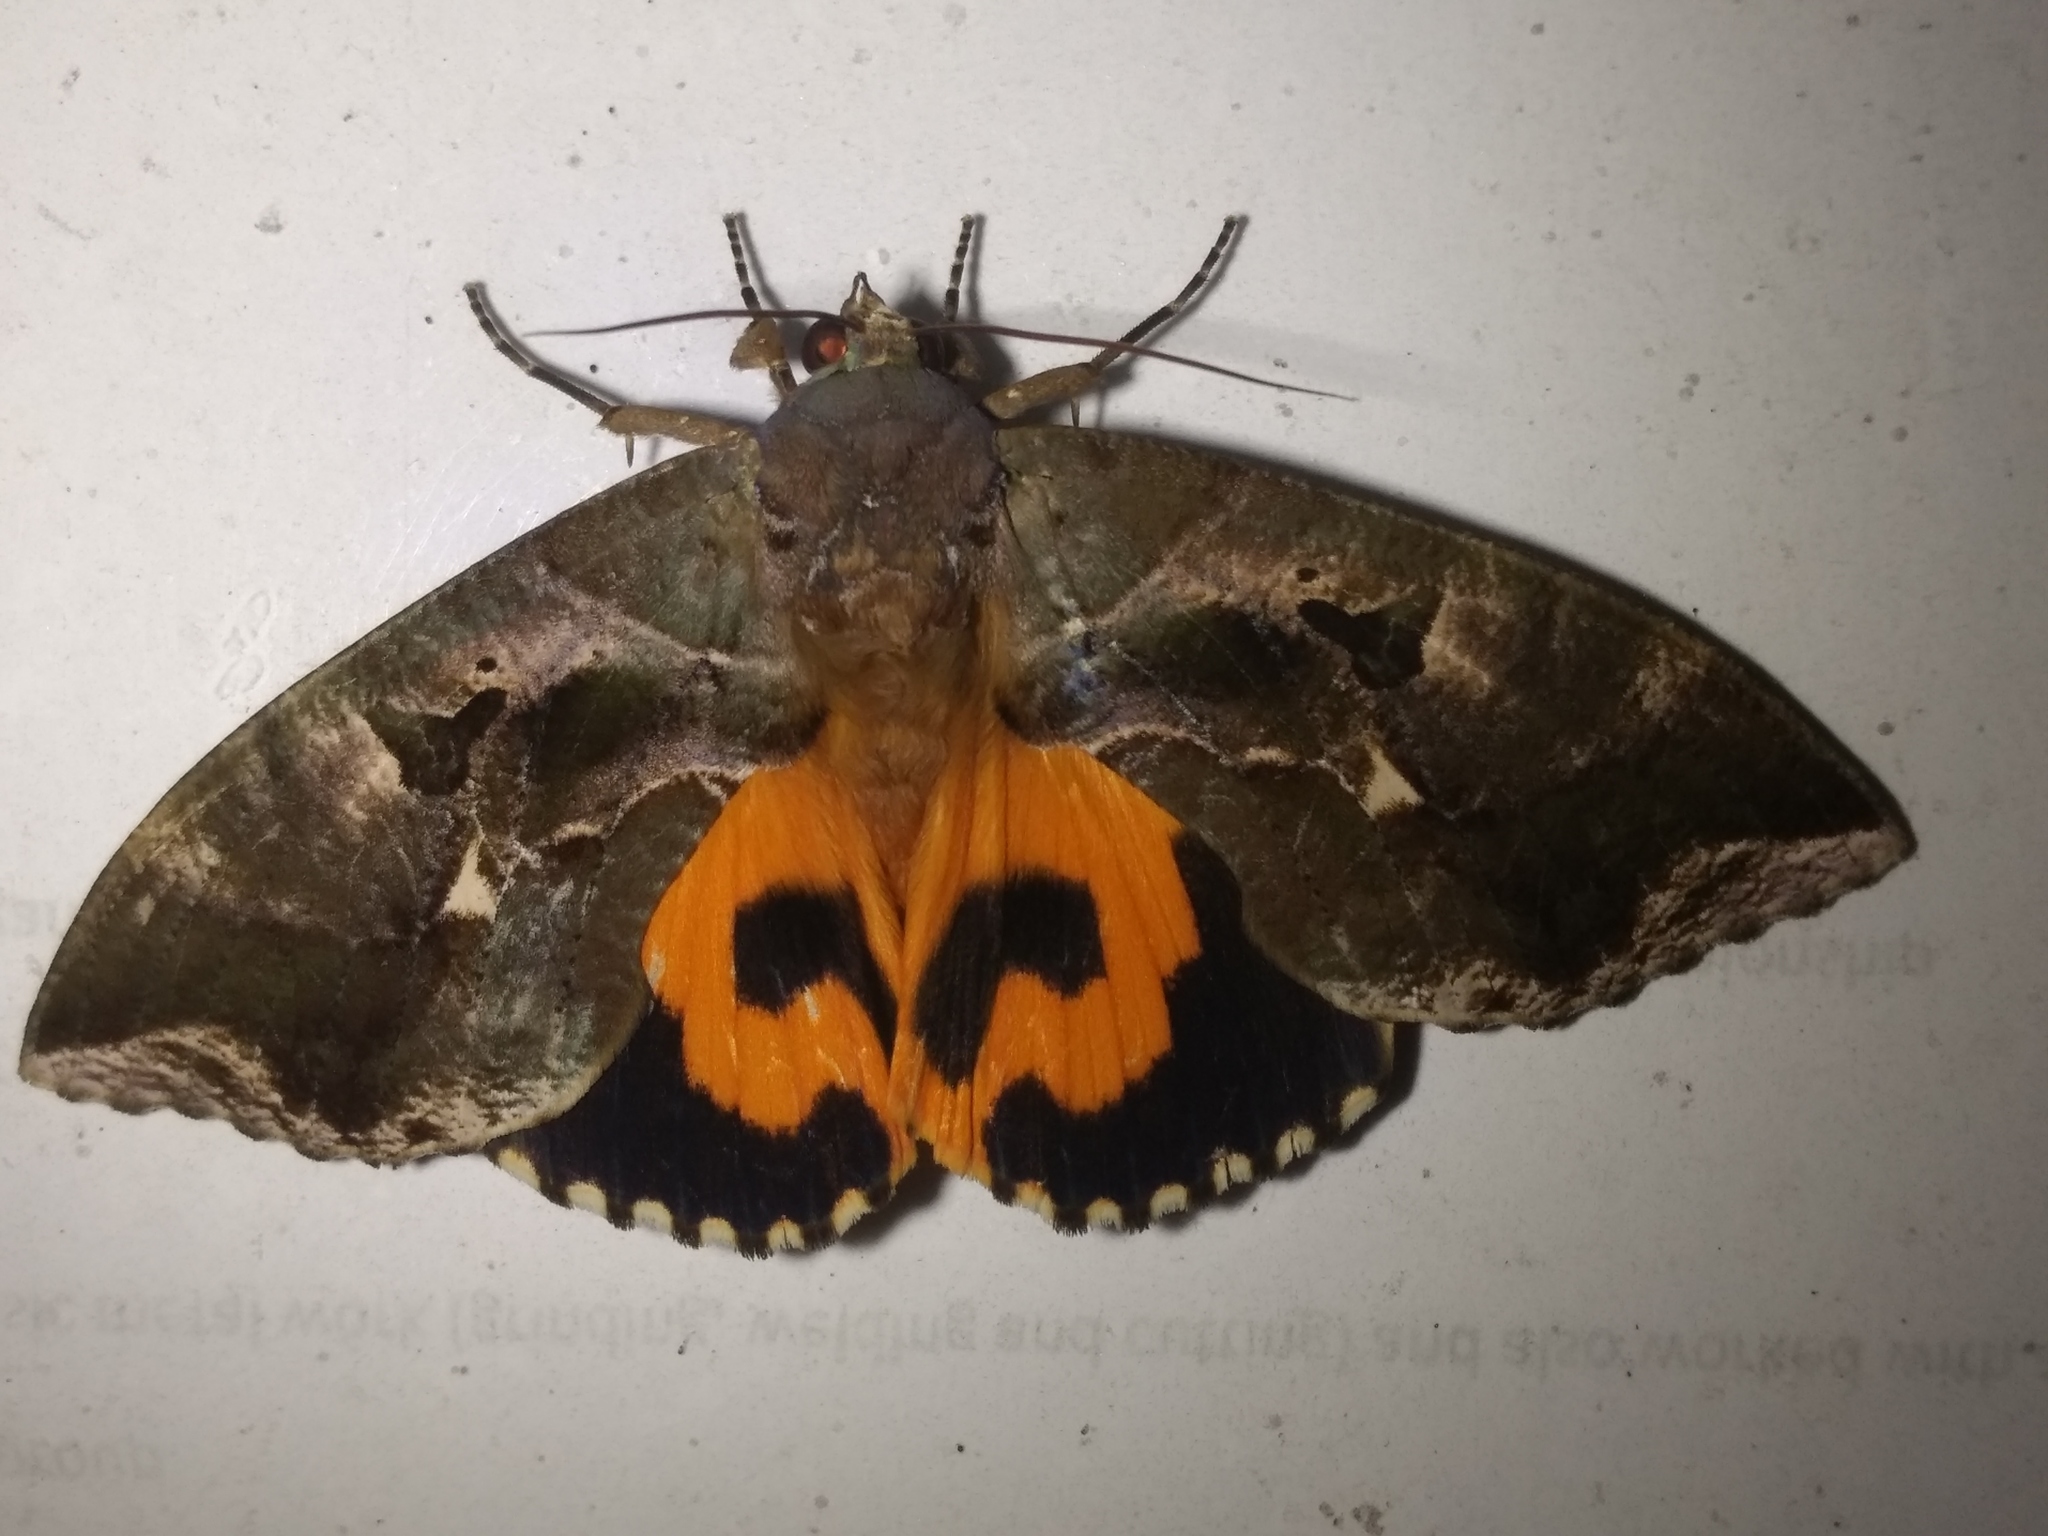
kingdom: Animalia
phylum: Arthropoda
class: Insecta
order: Lepidoptera
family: Erebidae
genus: Eudocima
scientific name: Eudocima phalonia
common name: Wasp
